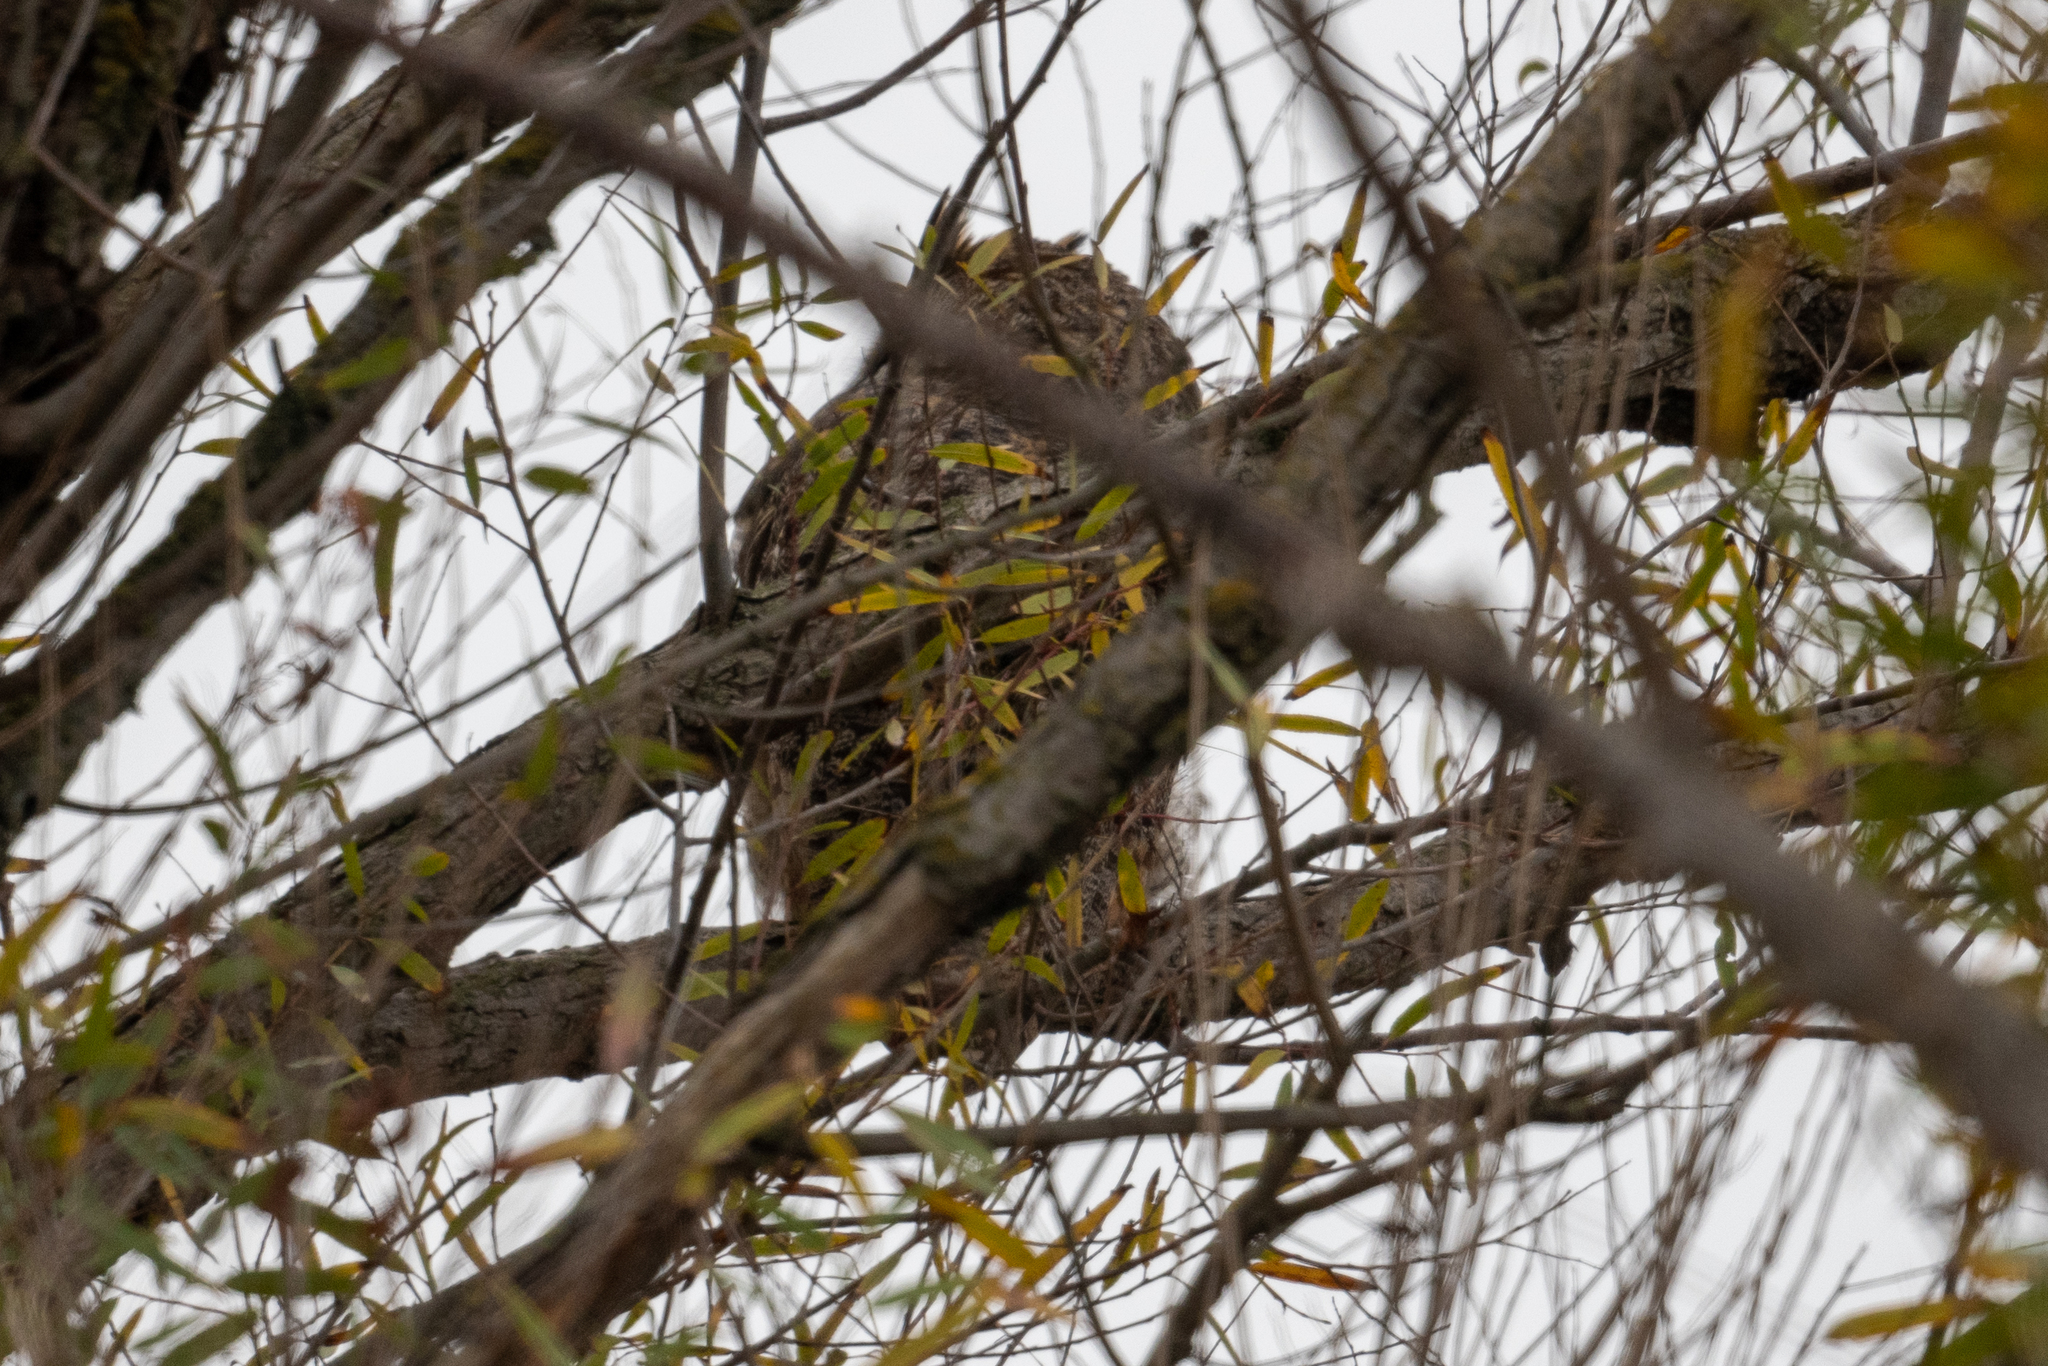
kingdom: Animalia
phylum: Chordata
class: Aves
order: Strigiformes
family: Strigidae
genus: Bubo
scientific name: Bubo virginianus
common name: Great horned owl
